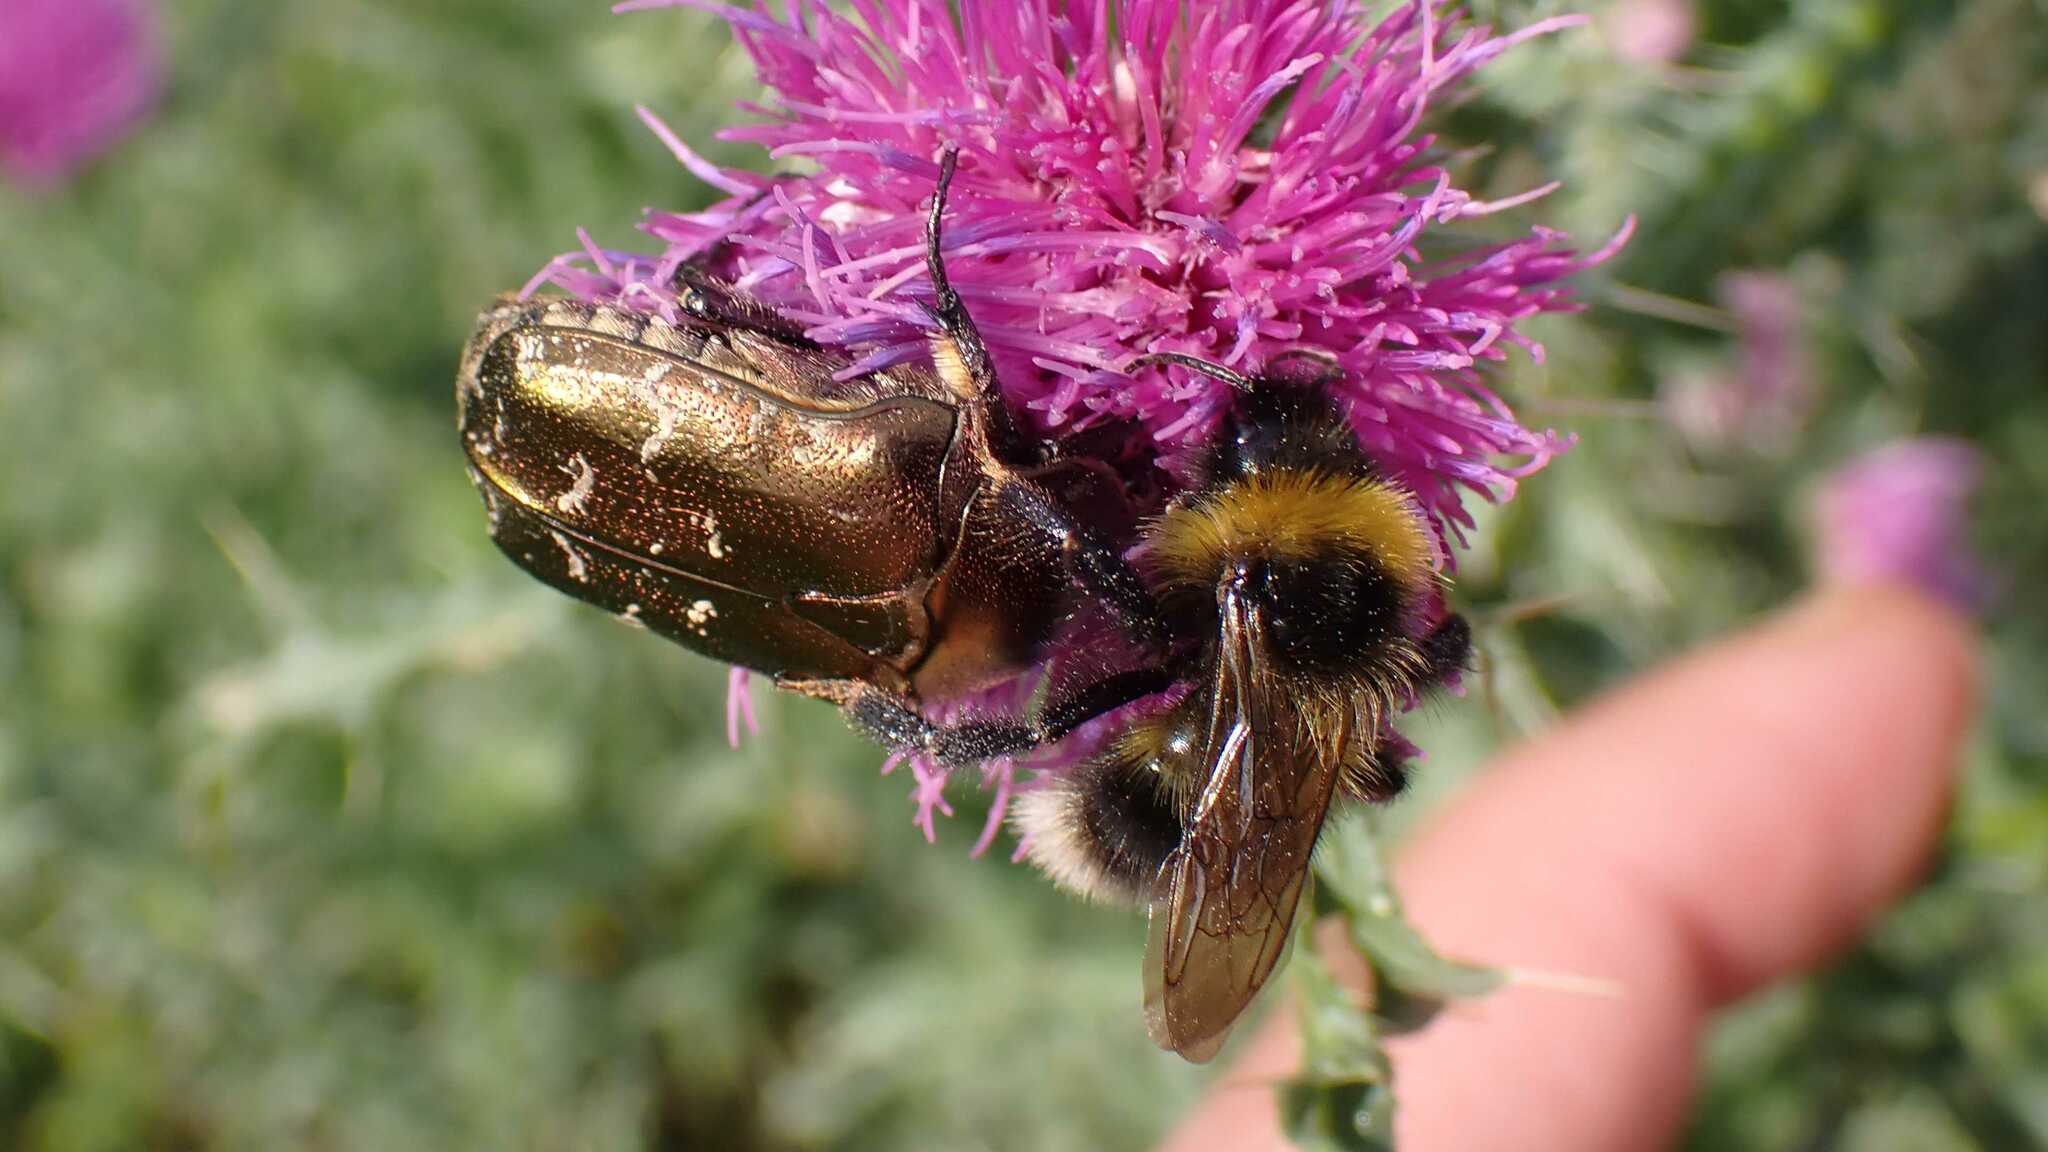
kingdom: Animalia
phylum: Arthropoda
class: Insecta
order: Coleoptera
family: Scarabaeidae
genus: Protaetia
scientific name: Protaetia cuprea
